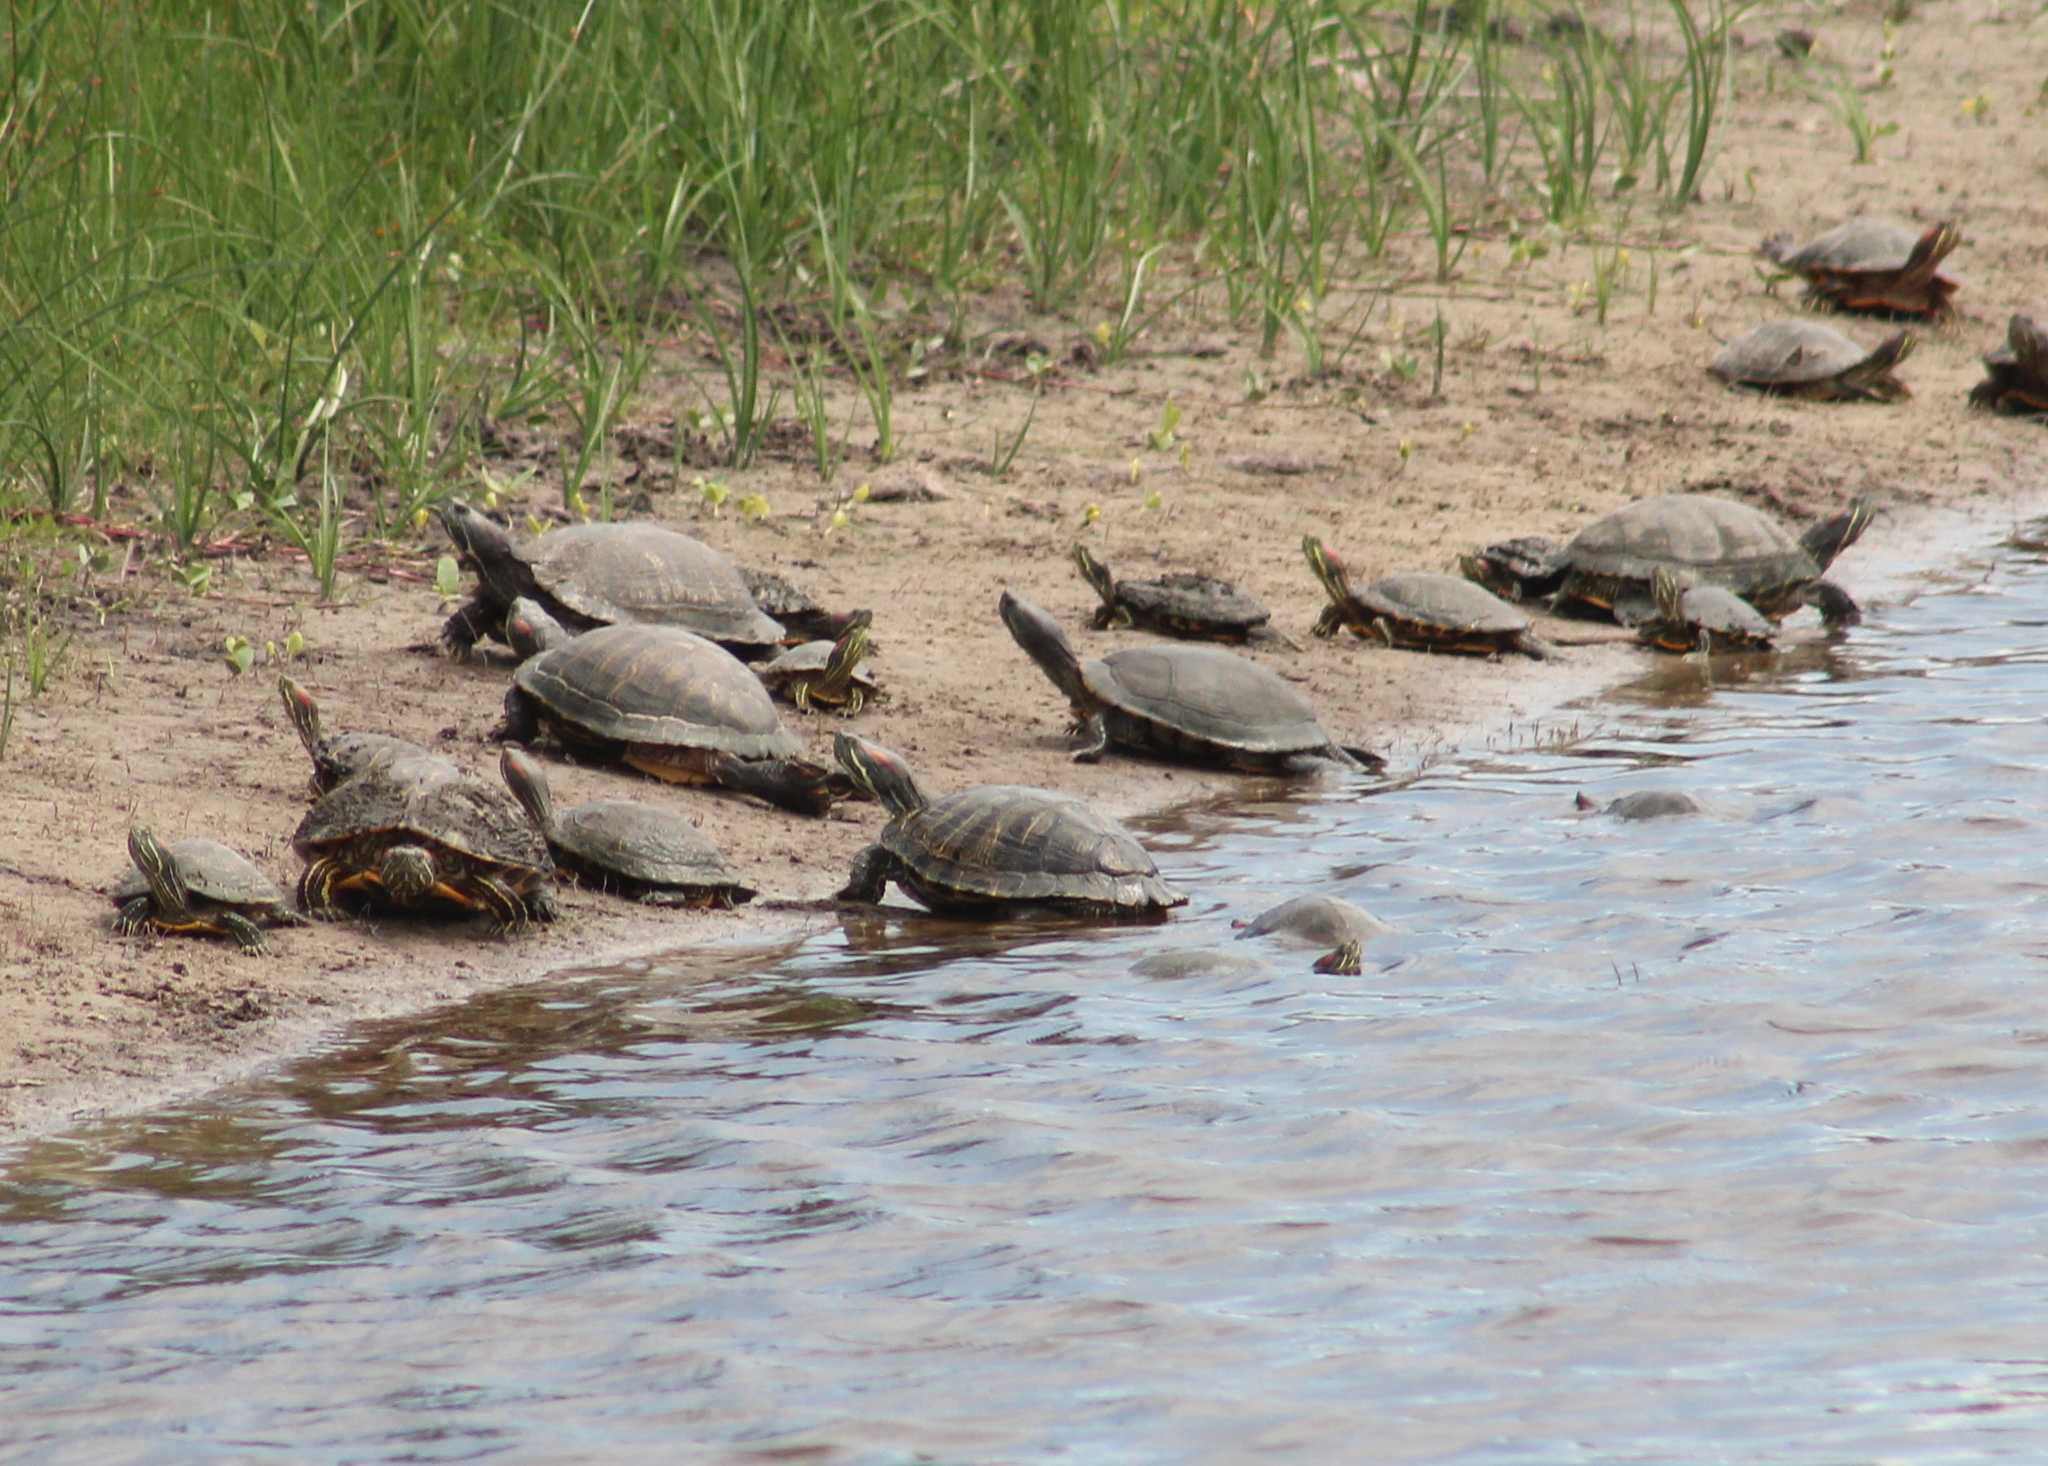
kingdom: Animalia
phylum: Chordata
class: Testudines
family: Emydidae
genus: Trachemys
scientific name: Trachemys scripta
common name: Slider
